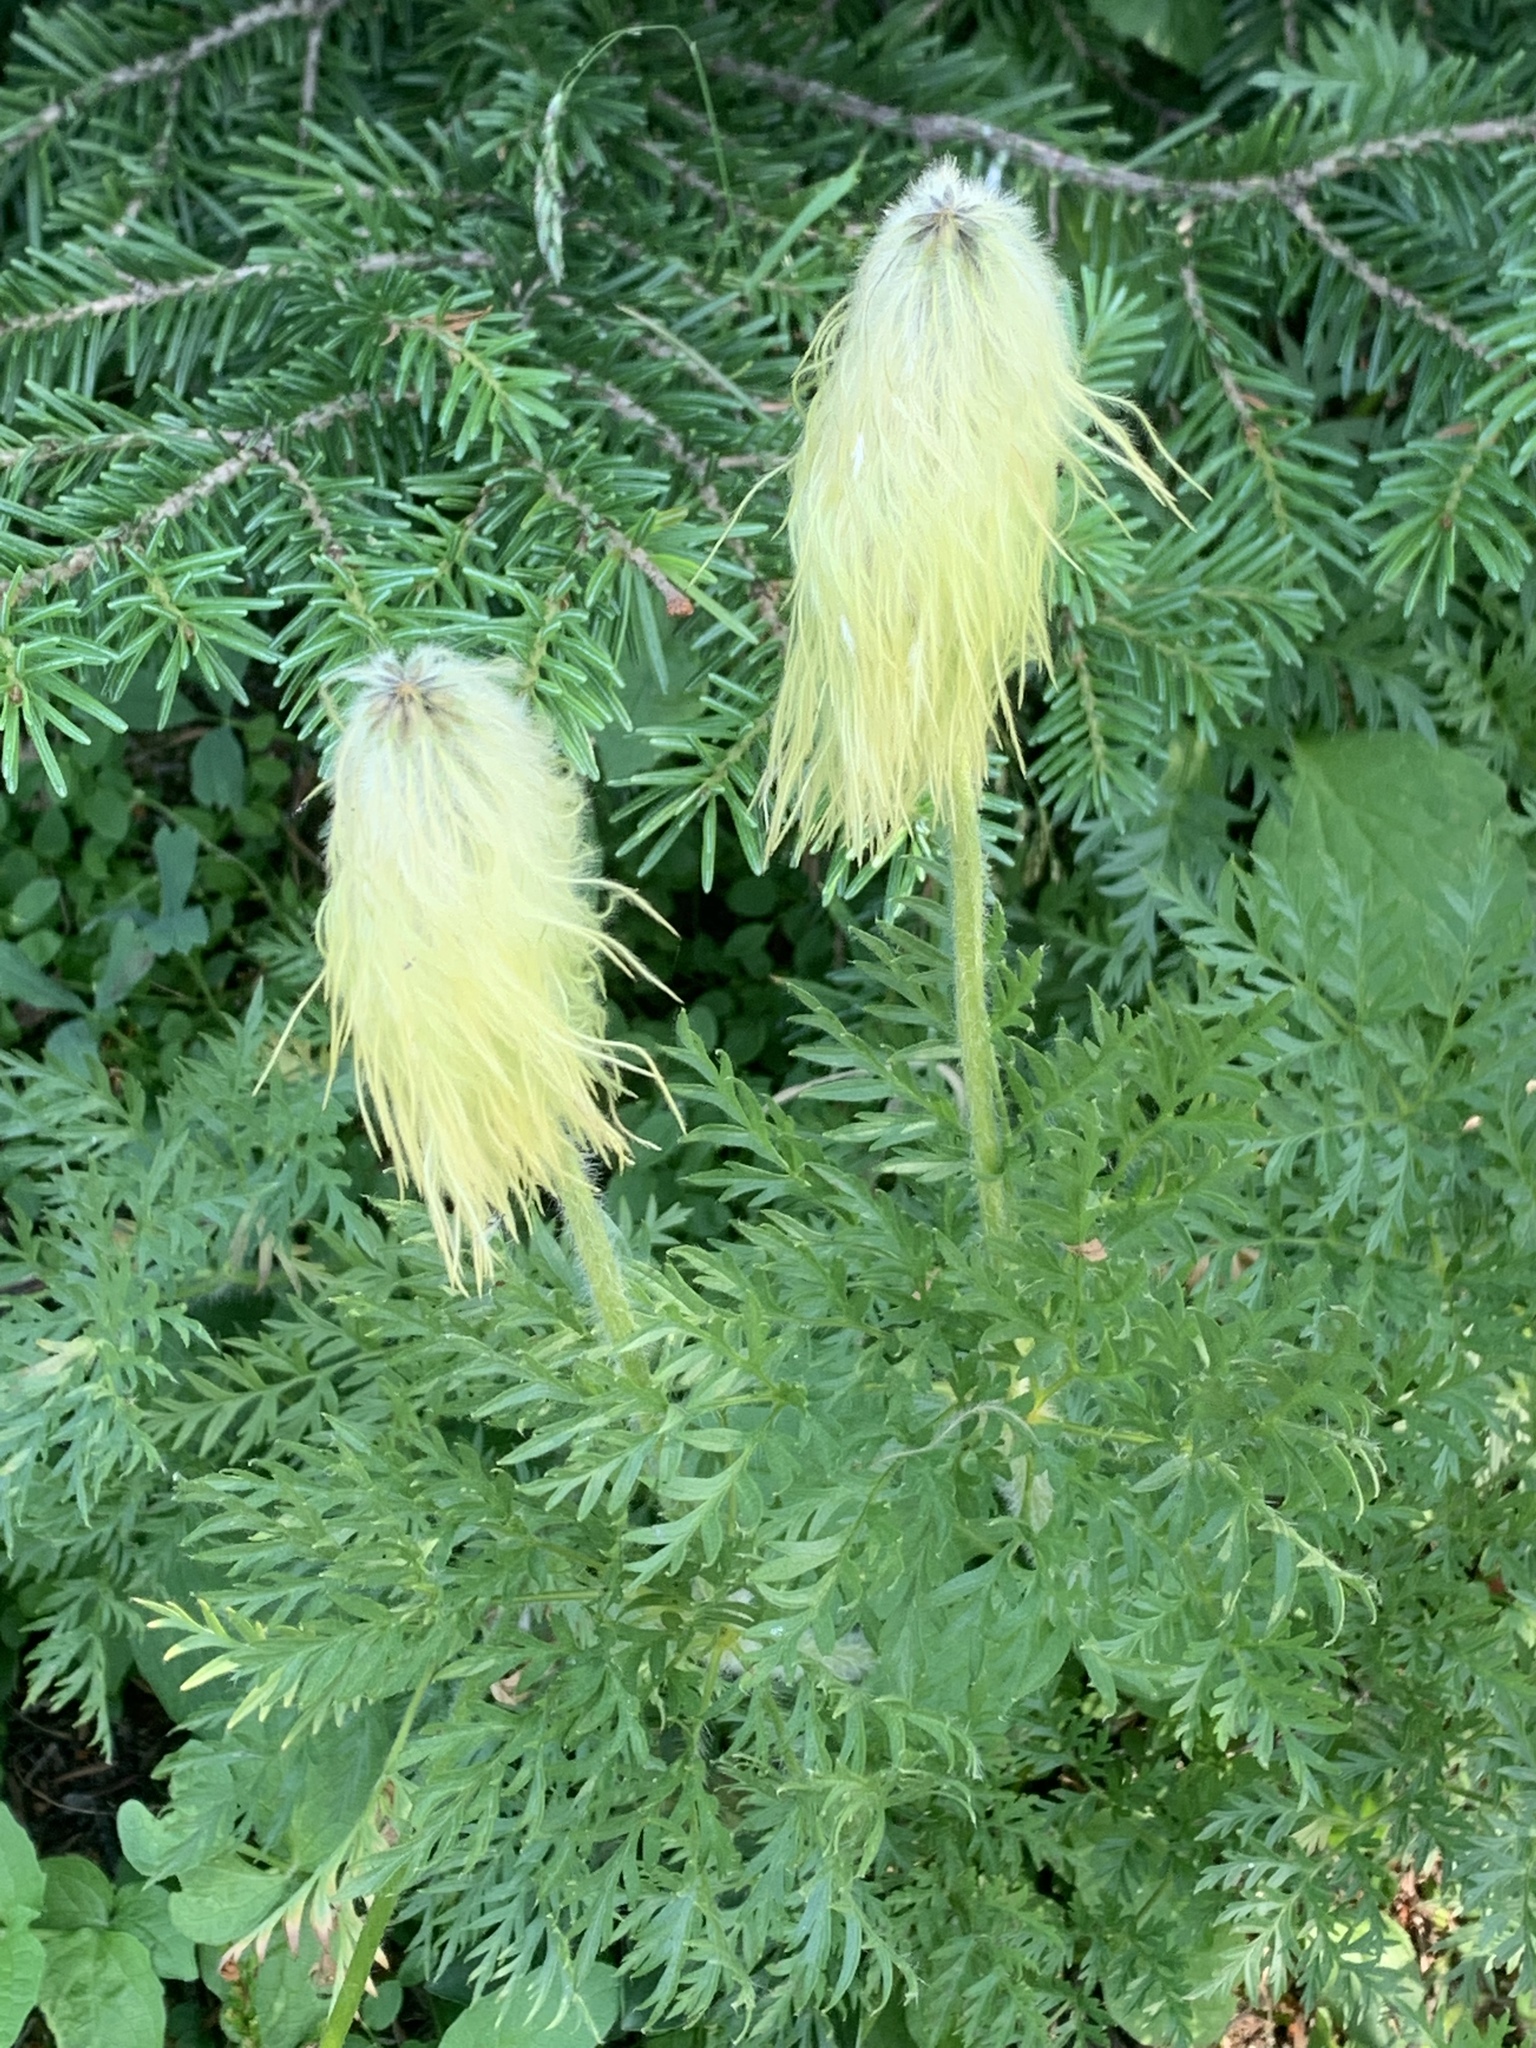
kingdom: Plantae
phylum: Tracheophyta
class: Magnoliopsida
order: Ranunculales
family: Ranunculaceae
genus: Pulsatilla
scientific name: Pulsatilla occidentalis
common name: Mountain pasqueflower
